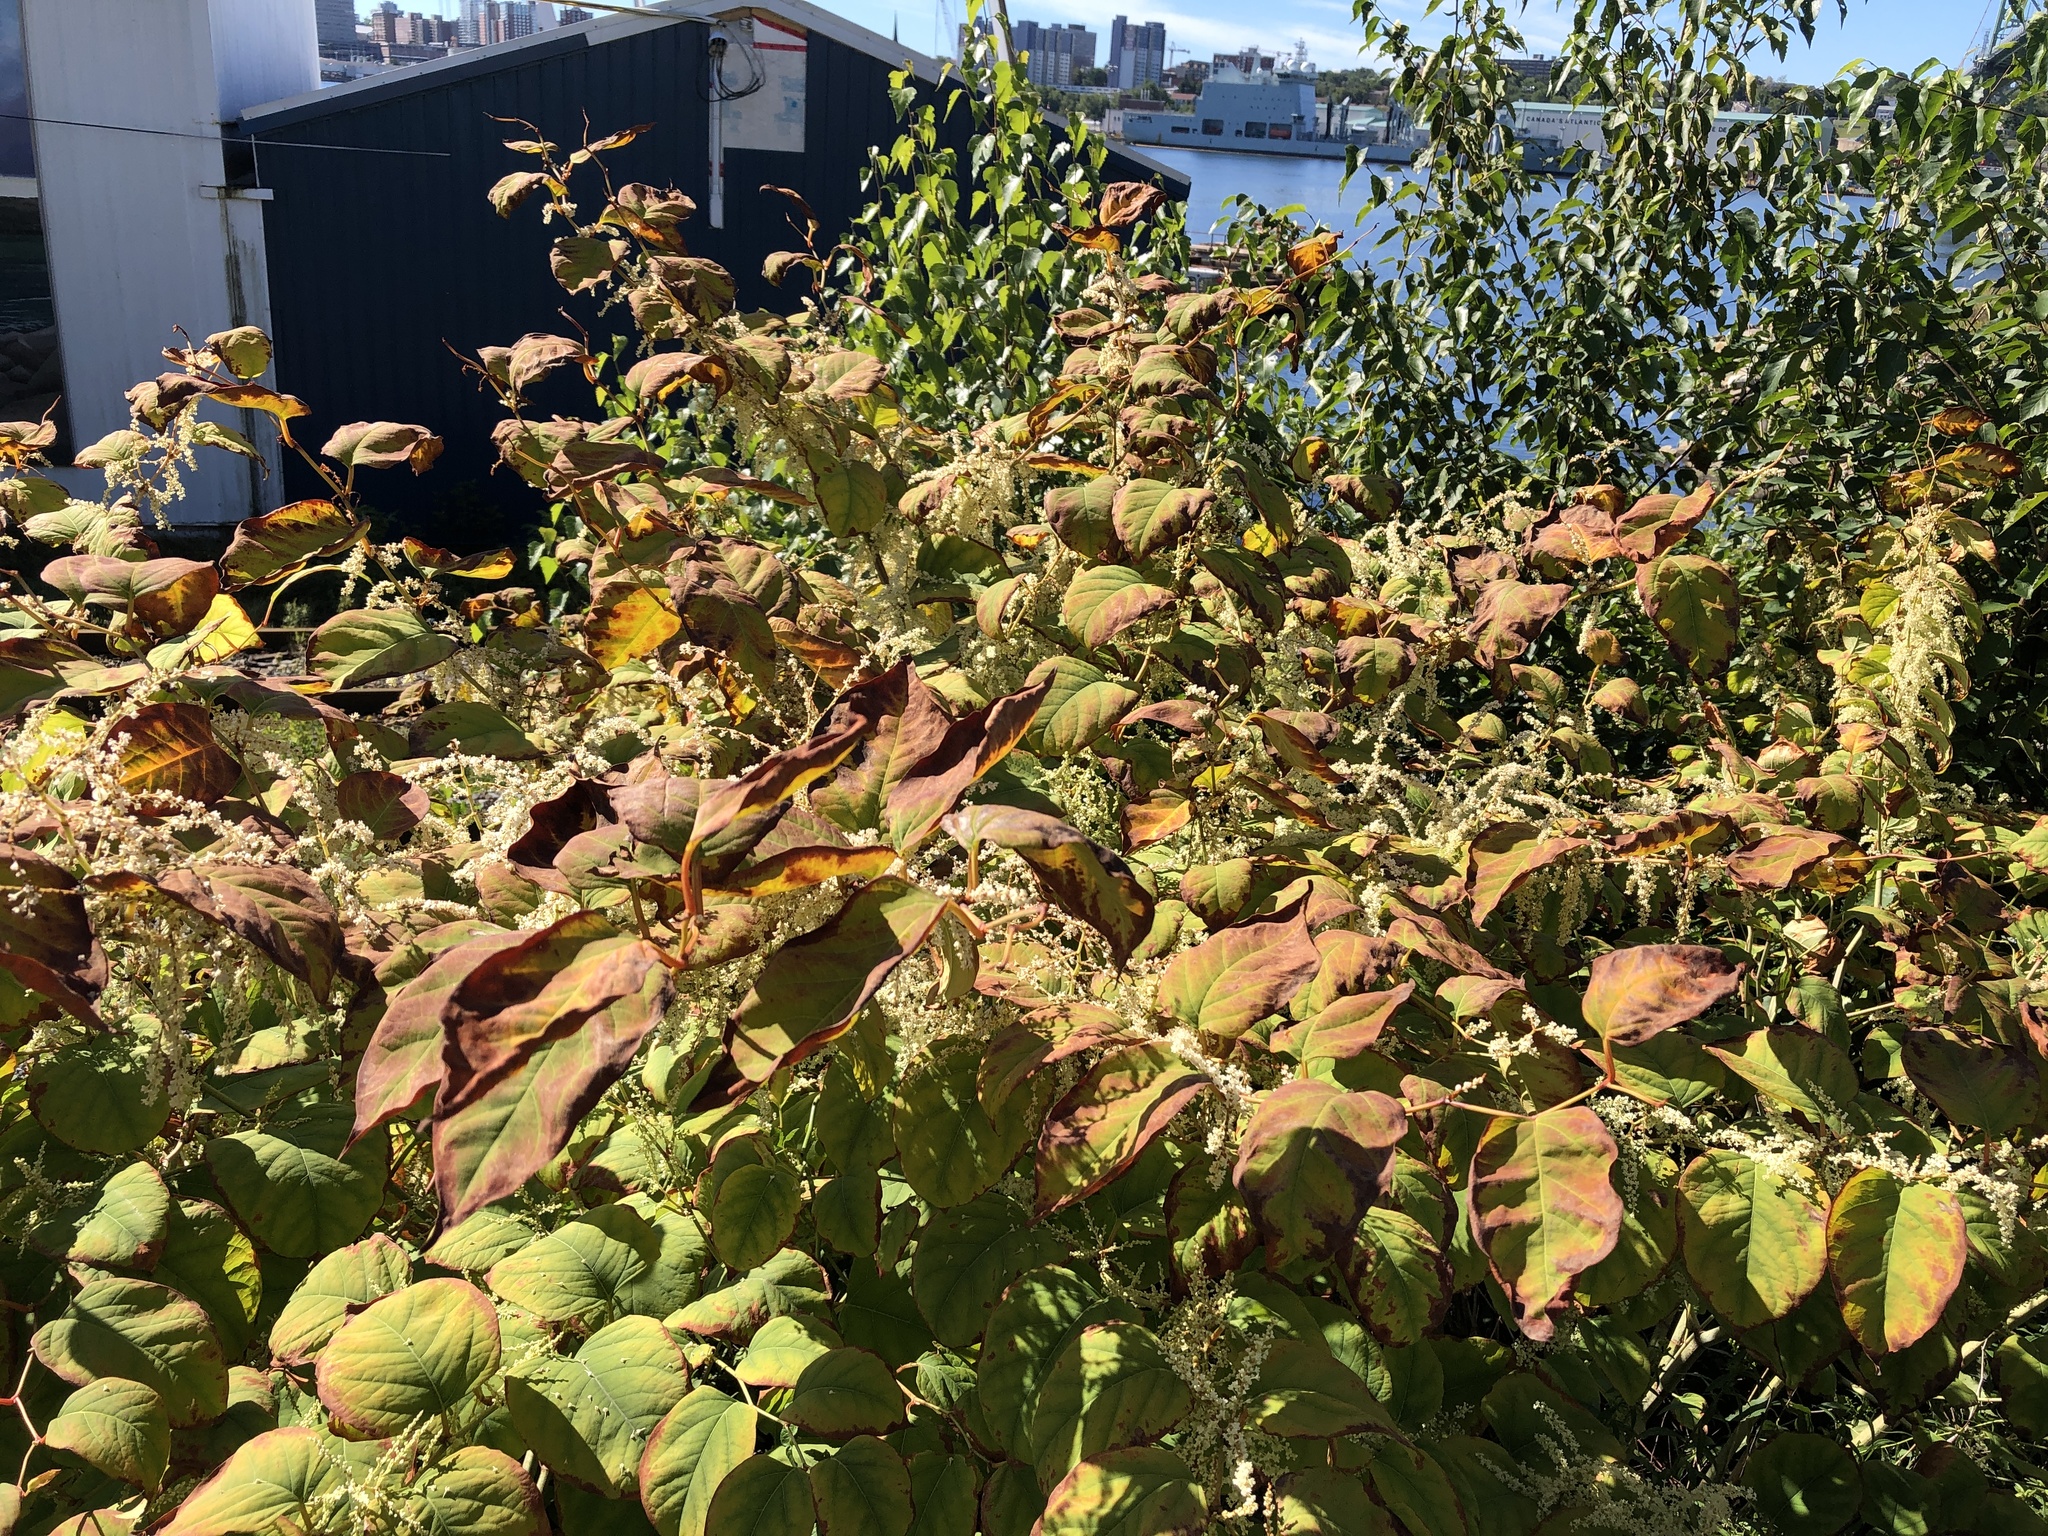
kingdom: Plantae
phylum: Tracheophyta
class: Magnoliopsida
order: Caryophyllales
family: Polygonaceae
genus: Reynoutria
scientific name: Reynoutria japonica
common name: Japanese knotweed
